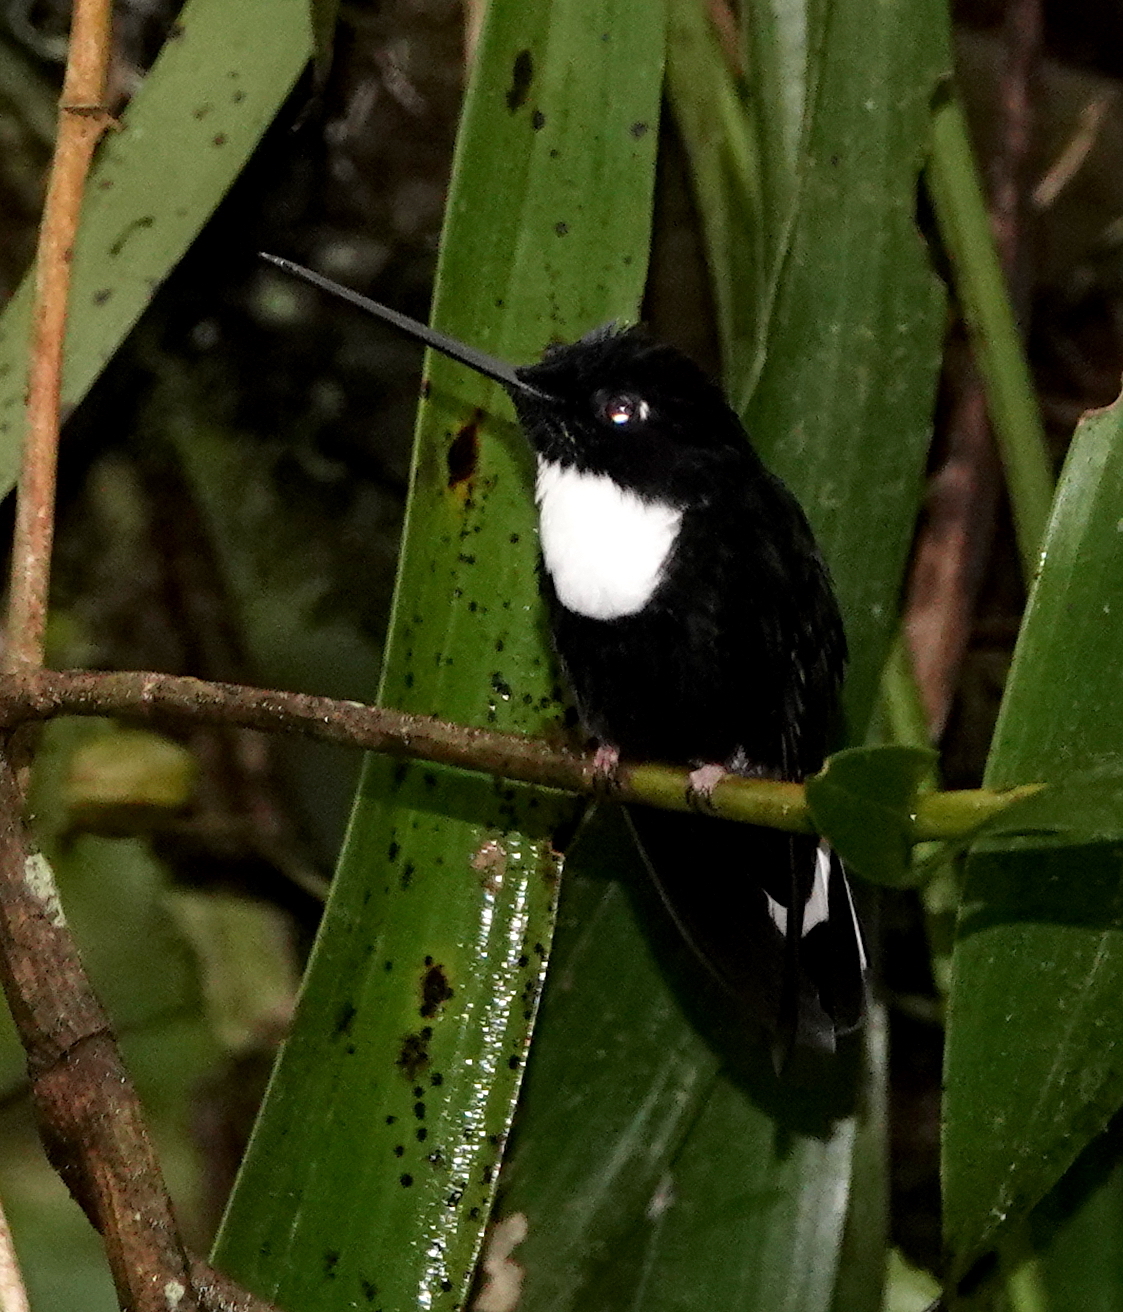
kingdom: Animalia
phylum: Chordata
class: Aves
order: Apodiformes
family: Trochilidae
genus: Coeligena
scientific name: Coeligena torquata
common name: Collared inca
